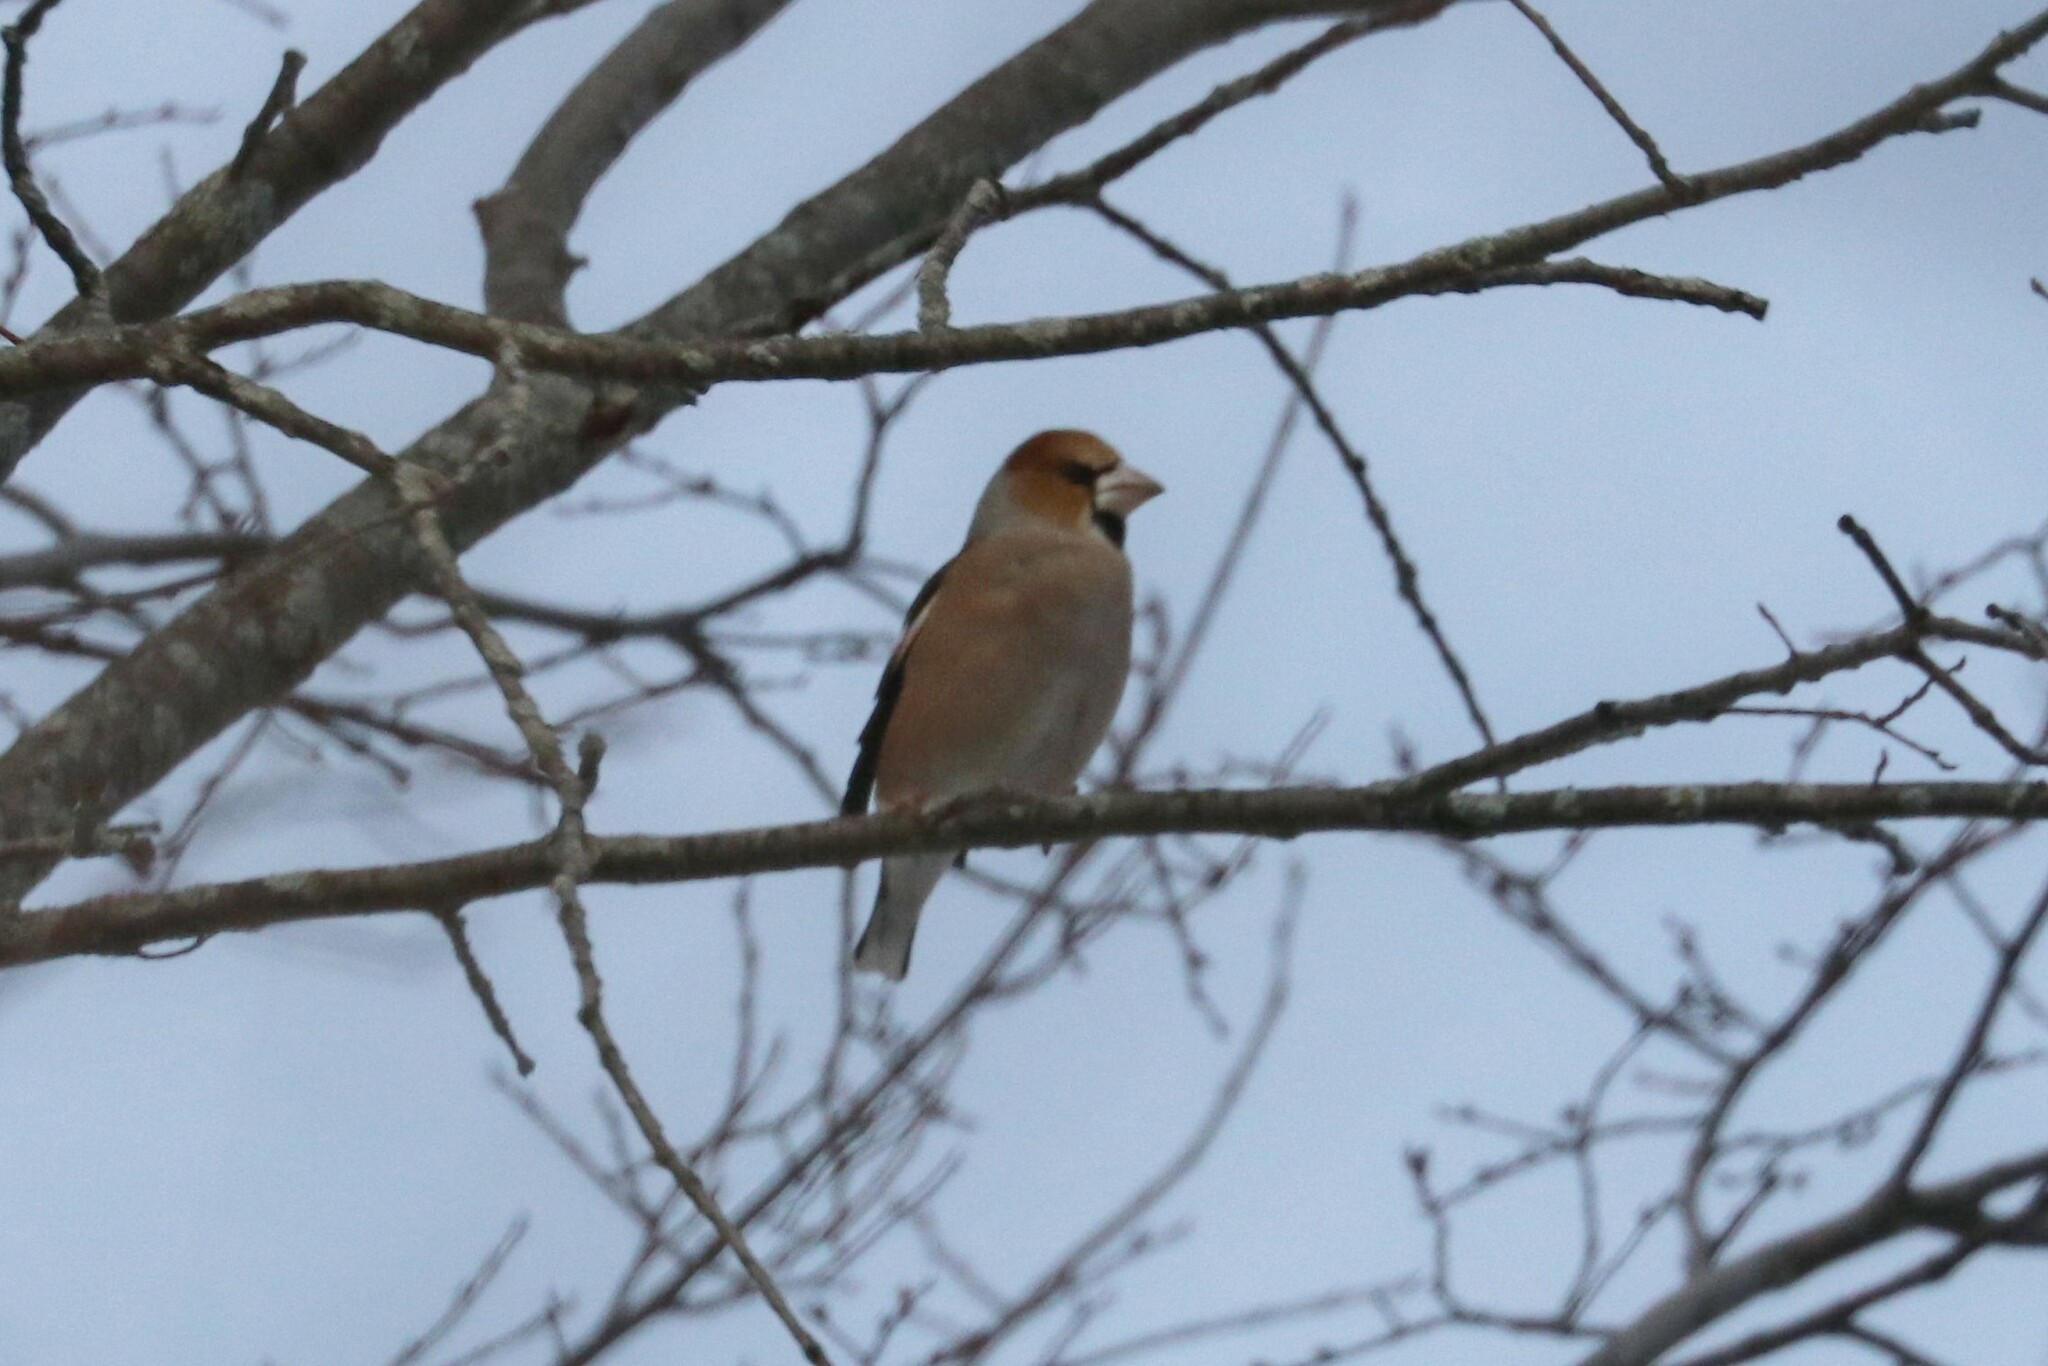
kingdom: Animalia
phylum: Chordata
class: Aves
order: Passeriformes
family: Fringillidae
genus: Coccothraustes
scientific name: Coccothraustes coccothraustes
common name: Hawfinch
